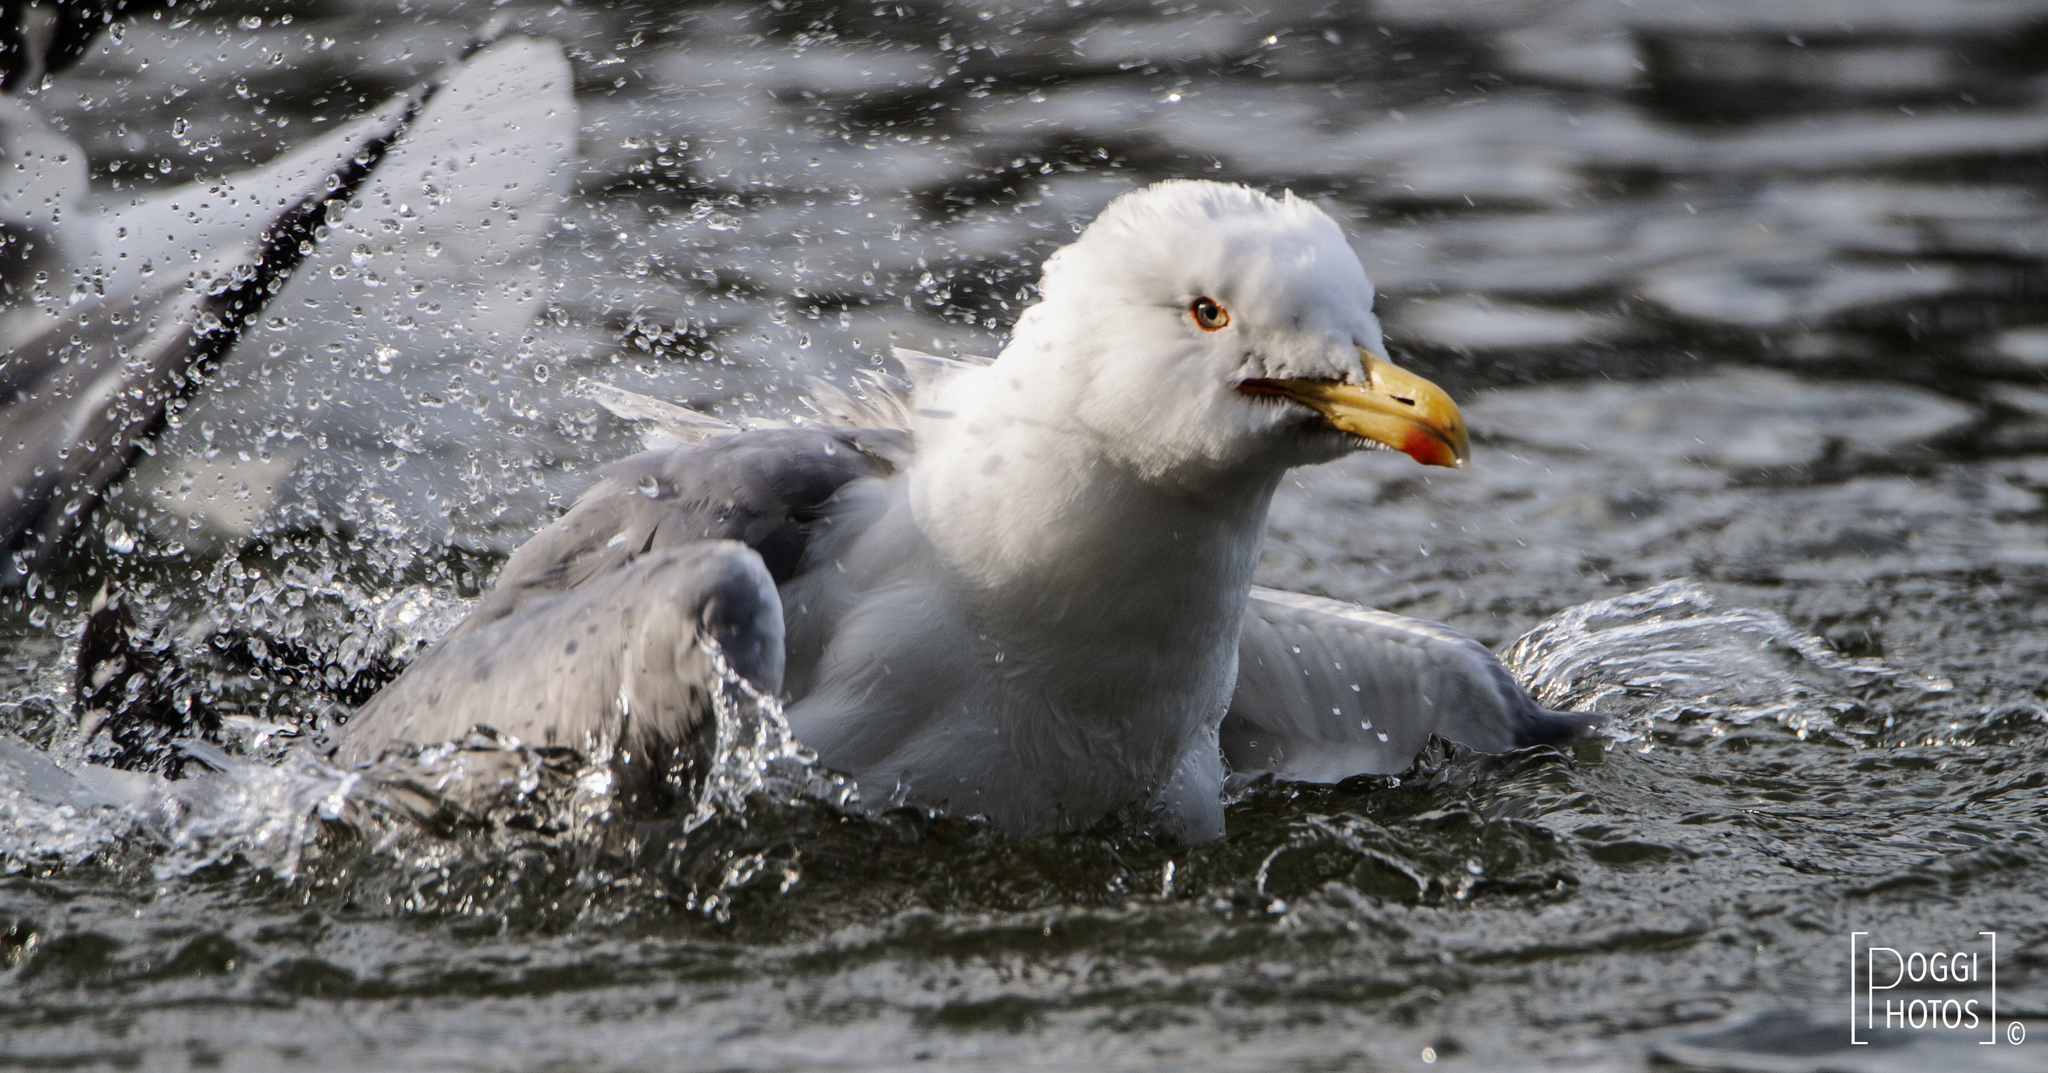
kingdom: Animalia
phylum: Chordata
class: Aves
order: Charadriiformes
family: Laridae
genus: Larus
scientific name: Larus michahellis
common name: Yellow-legged gull
